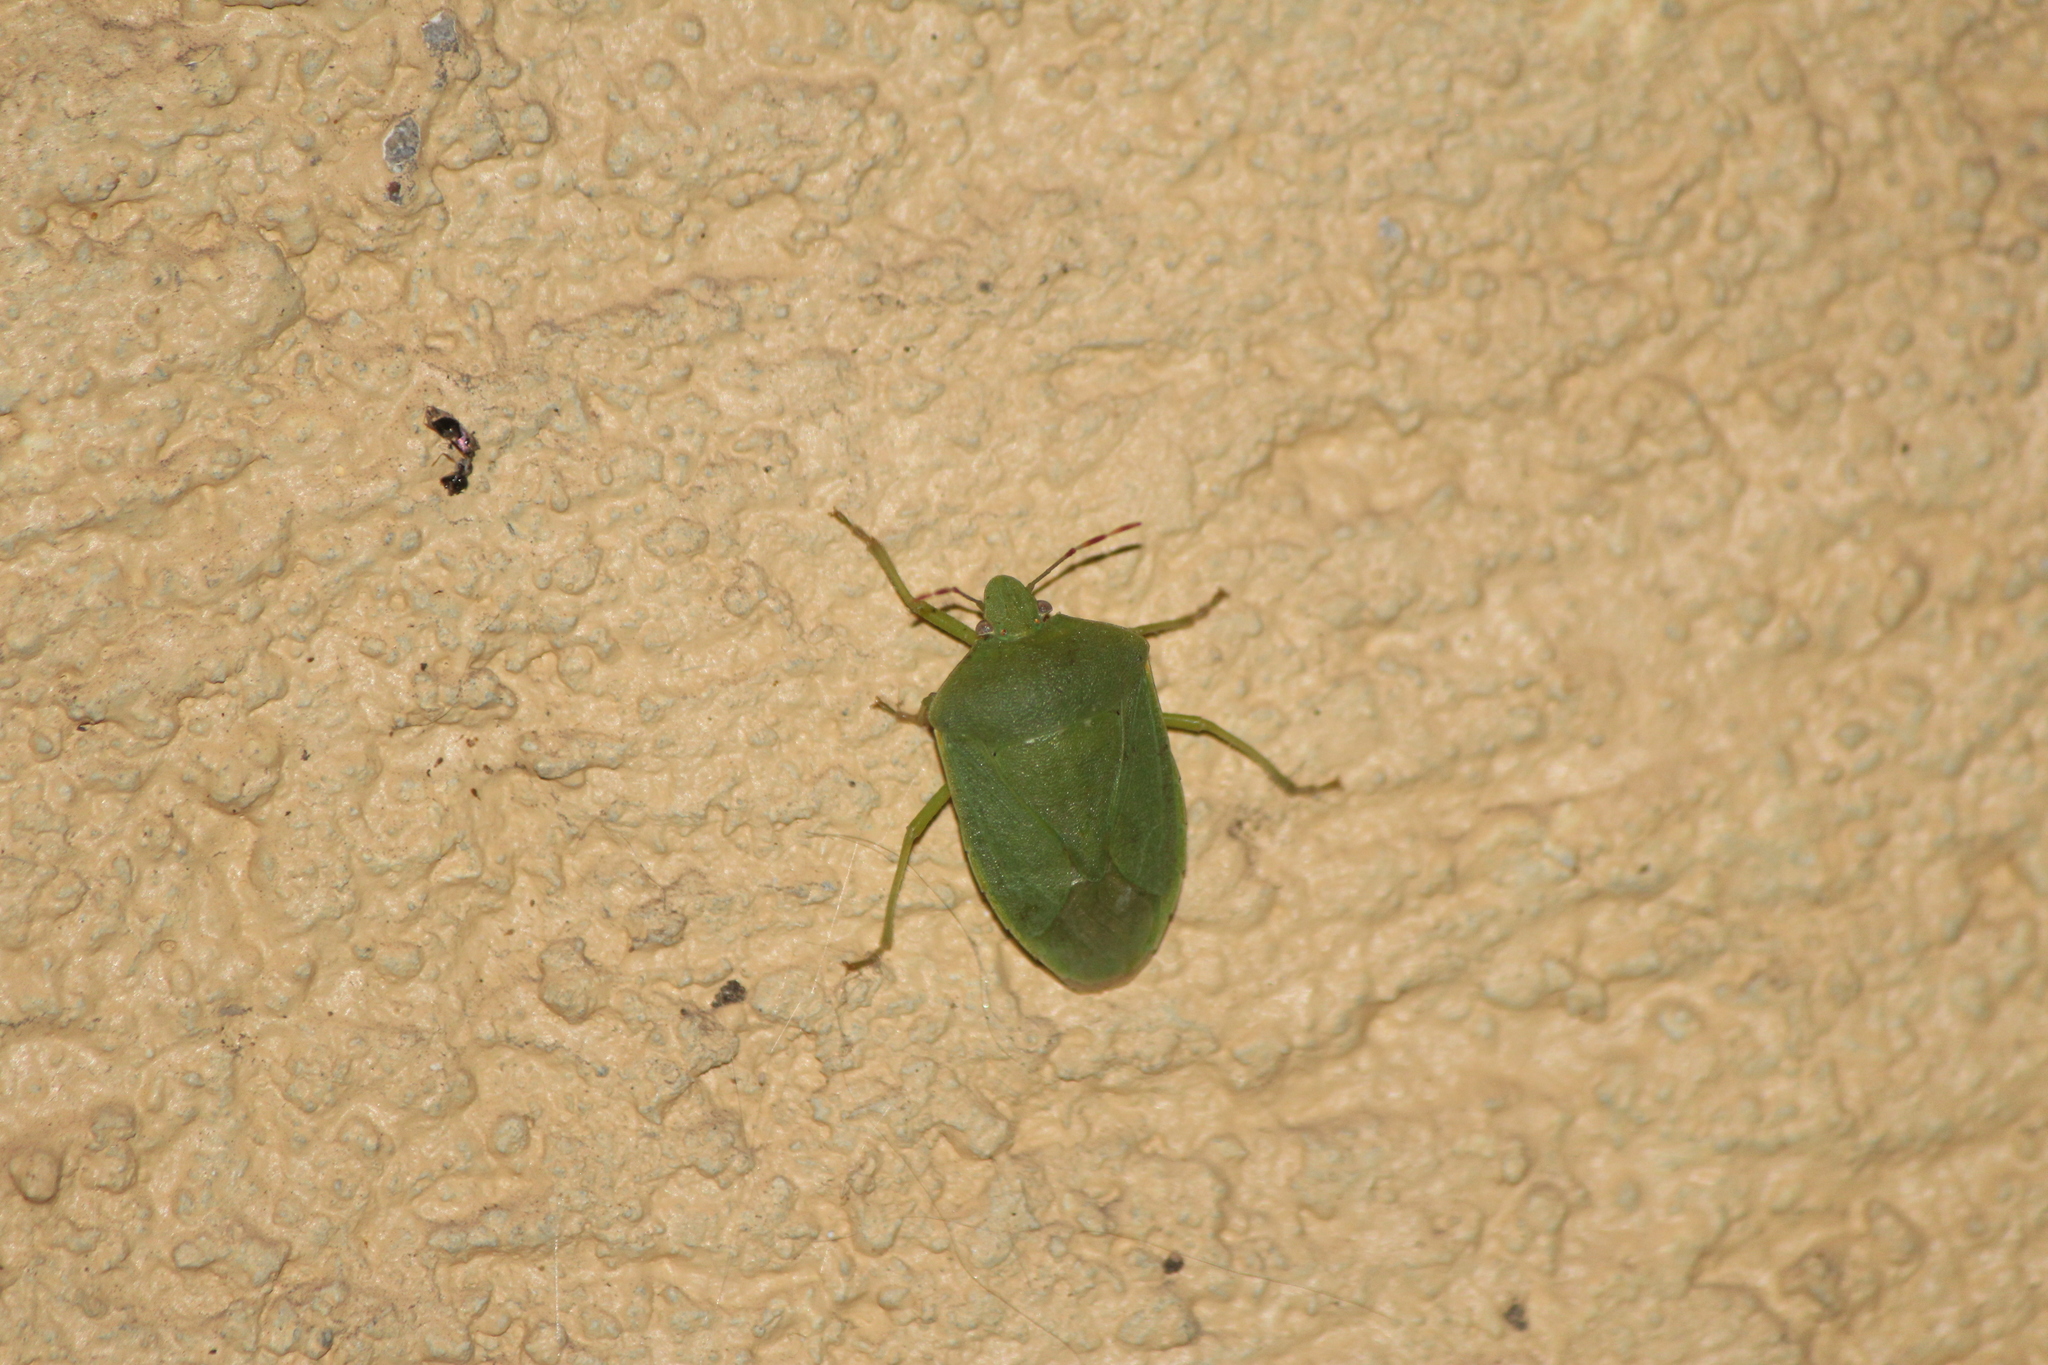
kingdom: Animalia
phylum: Arthropoda
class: Insecta
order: Hemiptera
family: Pentatomidae
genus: Nezara
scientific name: Nezara viridula
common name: Southern green stink bug
